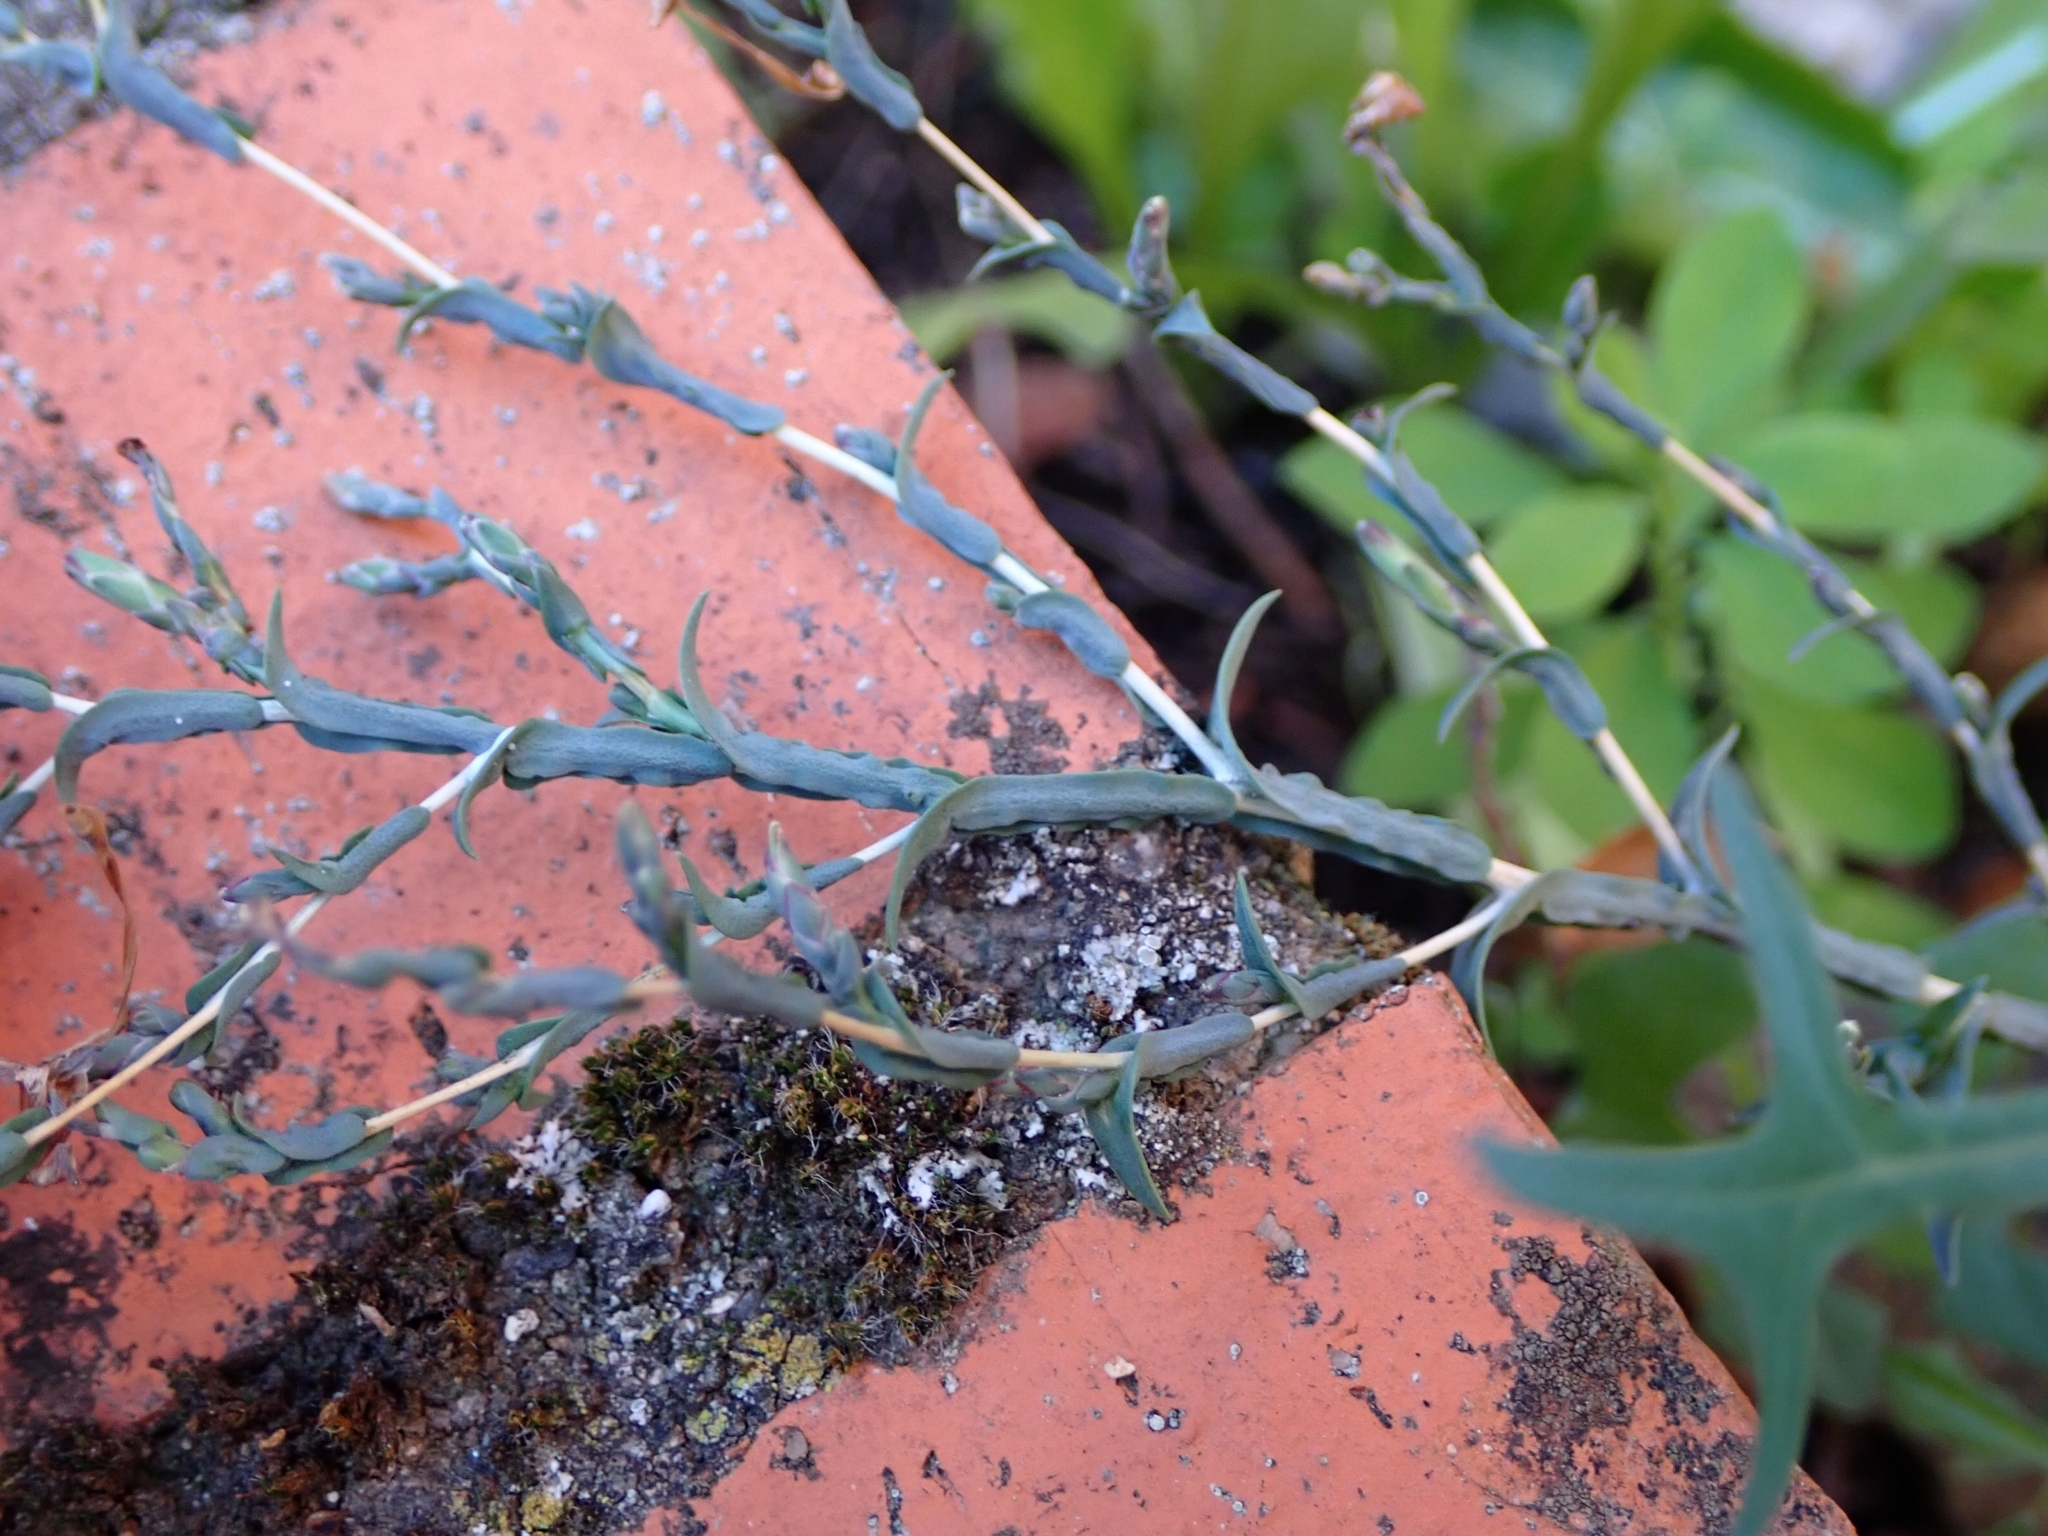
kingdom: Plantae
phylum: Tracheophyta
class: Magnoliopsida
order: Asterales
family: Asteraceae
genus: Lactuca
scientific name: Lactuca viminea
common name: Pliant lettuce
